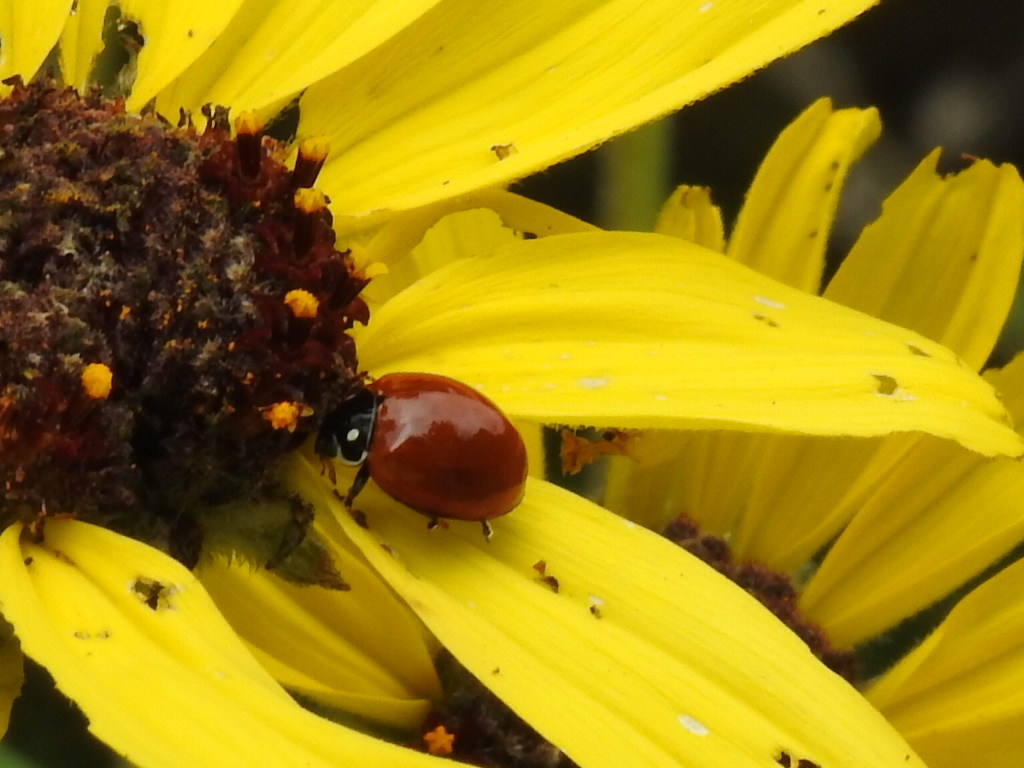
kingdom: Animalia
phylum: Arthropoda
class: Insecta
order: Coleoptera
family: Coccinellidae
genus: Cycloneda
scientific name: Cycloneda sanguinea
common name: Ladybird beetle
